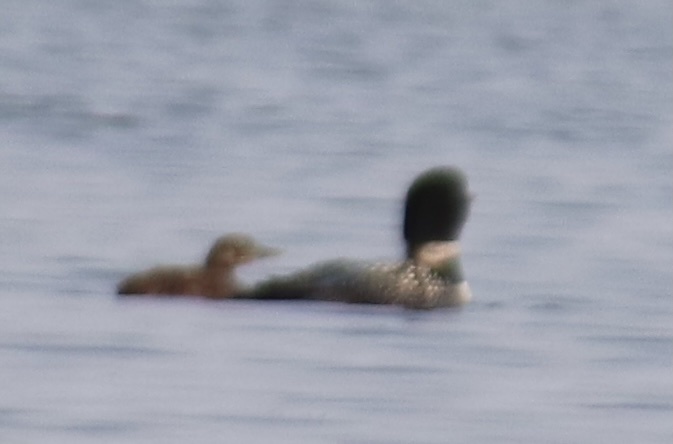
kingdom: Animalia
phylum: Chordata
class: Aves
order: Gaviiformes
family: Gaviidae
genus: Gavia
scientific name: Gavia immer
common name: Common loon
